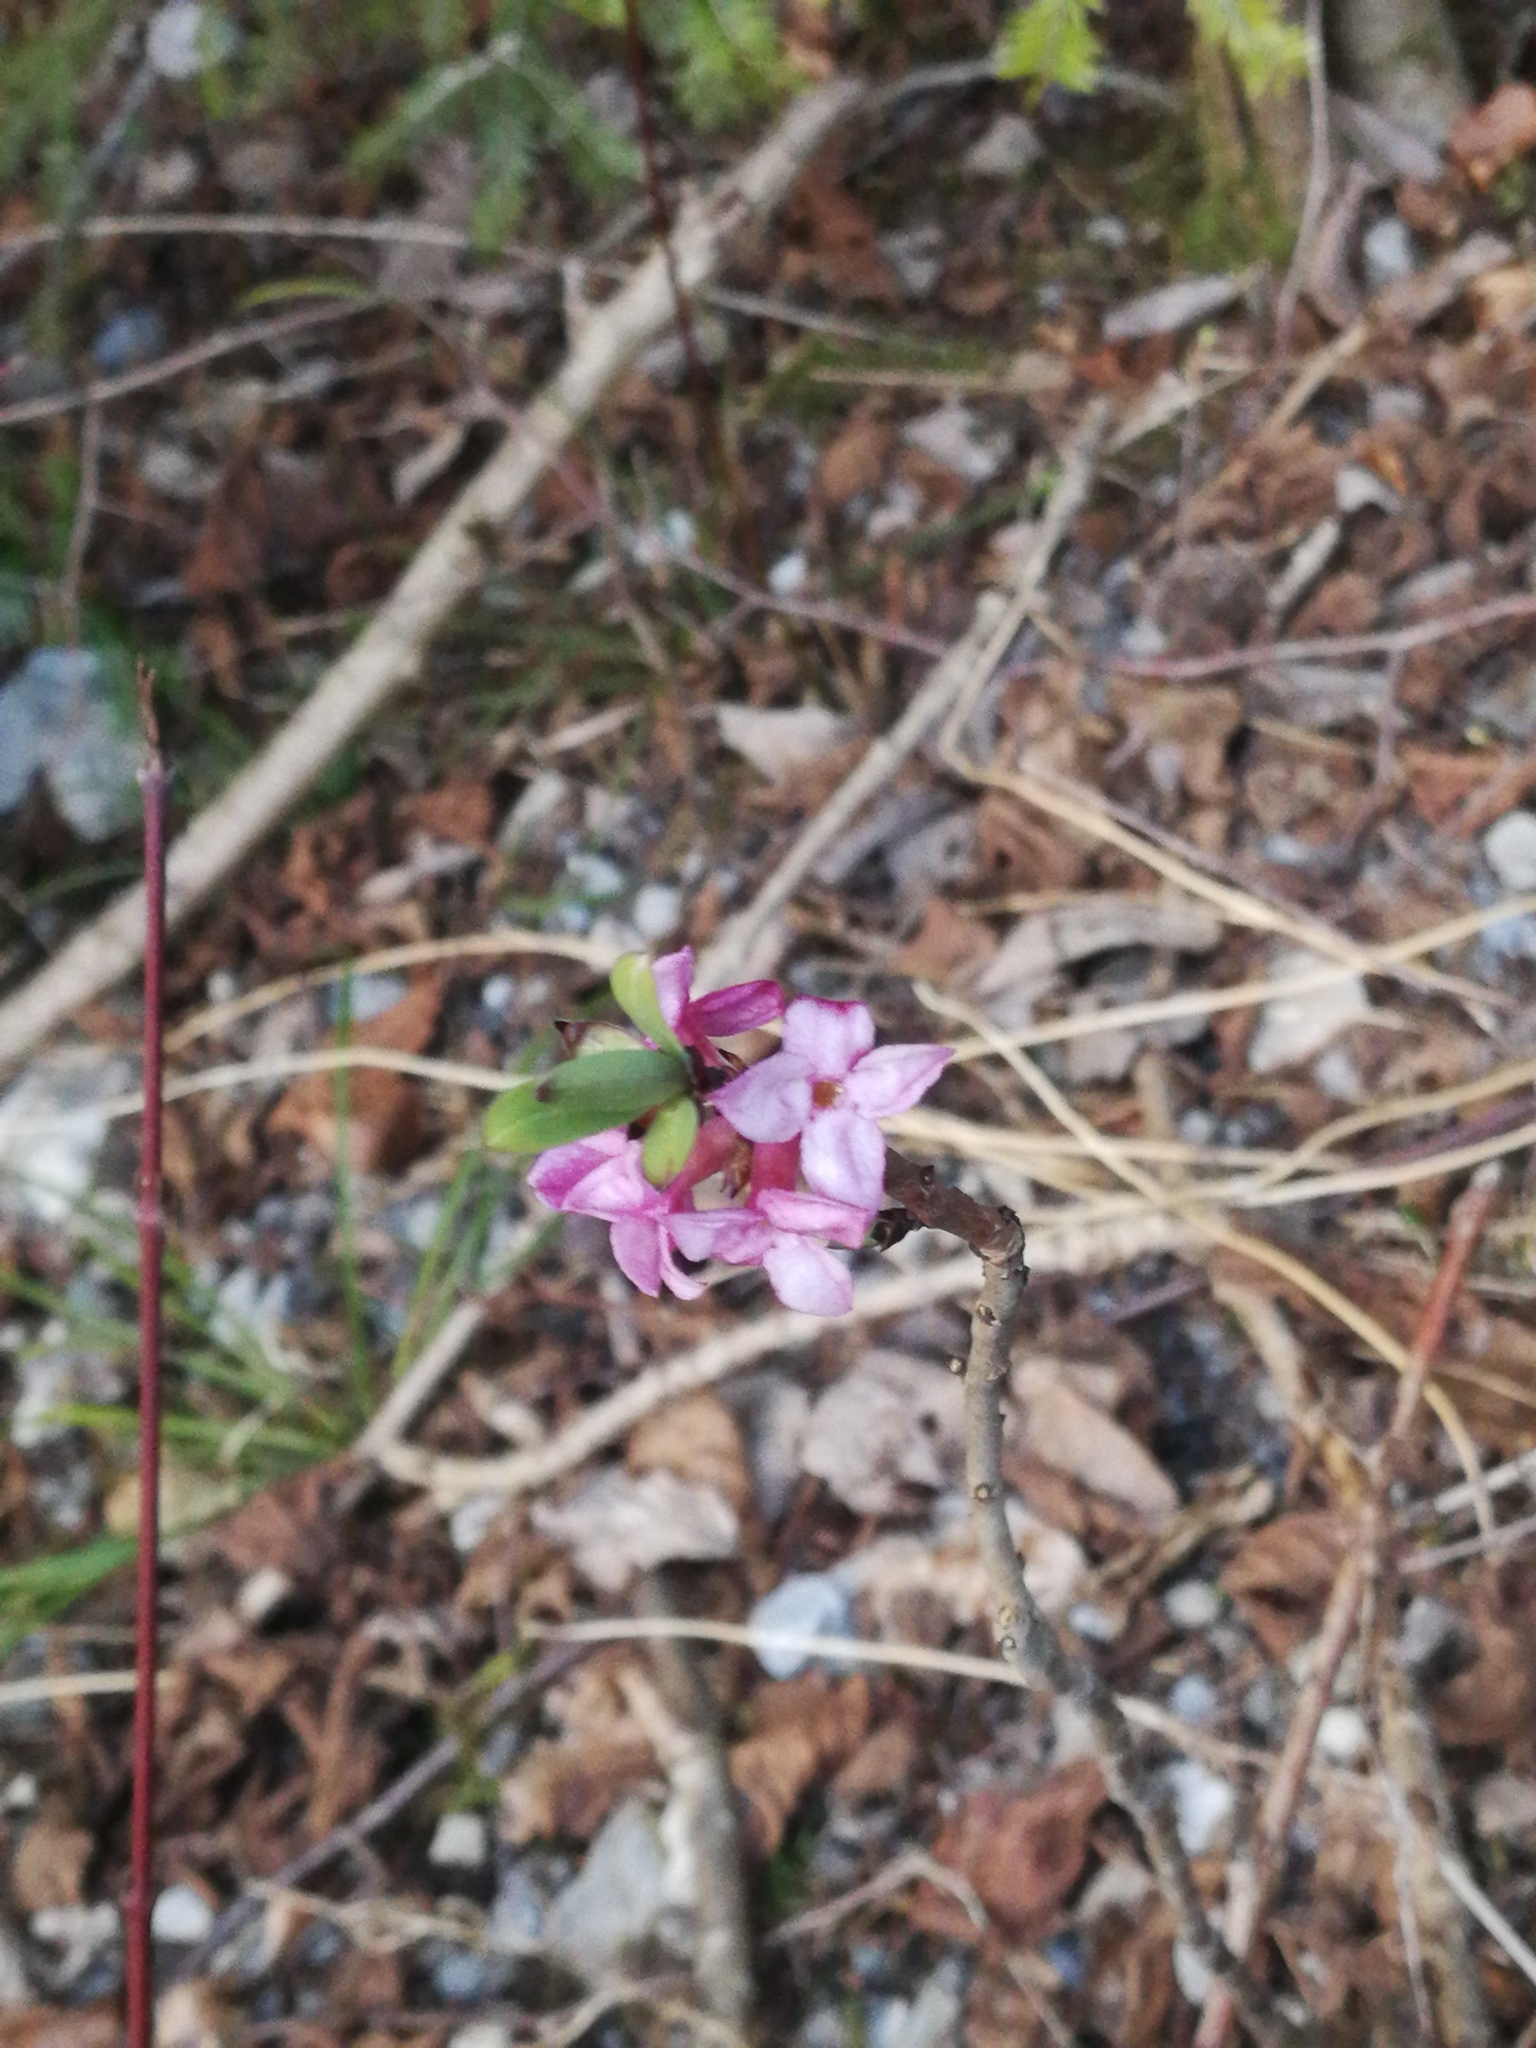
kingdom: Plantae
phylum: Tracheophyta
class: Magnoliopsida
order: Malvales
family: Thymelaeaceae
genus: Daphne
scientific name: Daphne mezereum
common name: Mezereon
